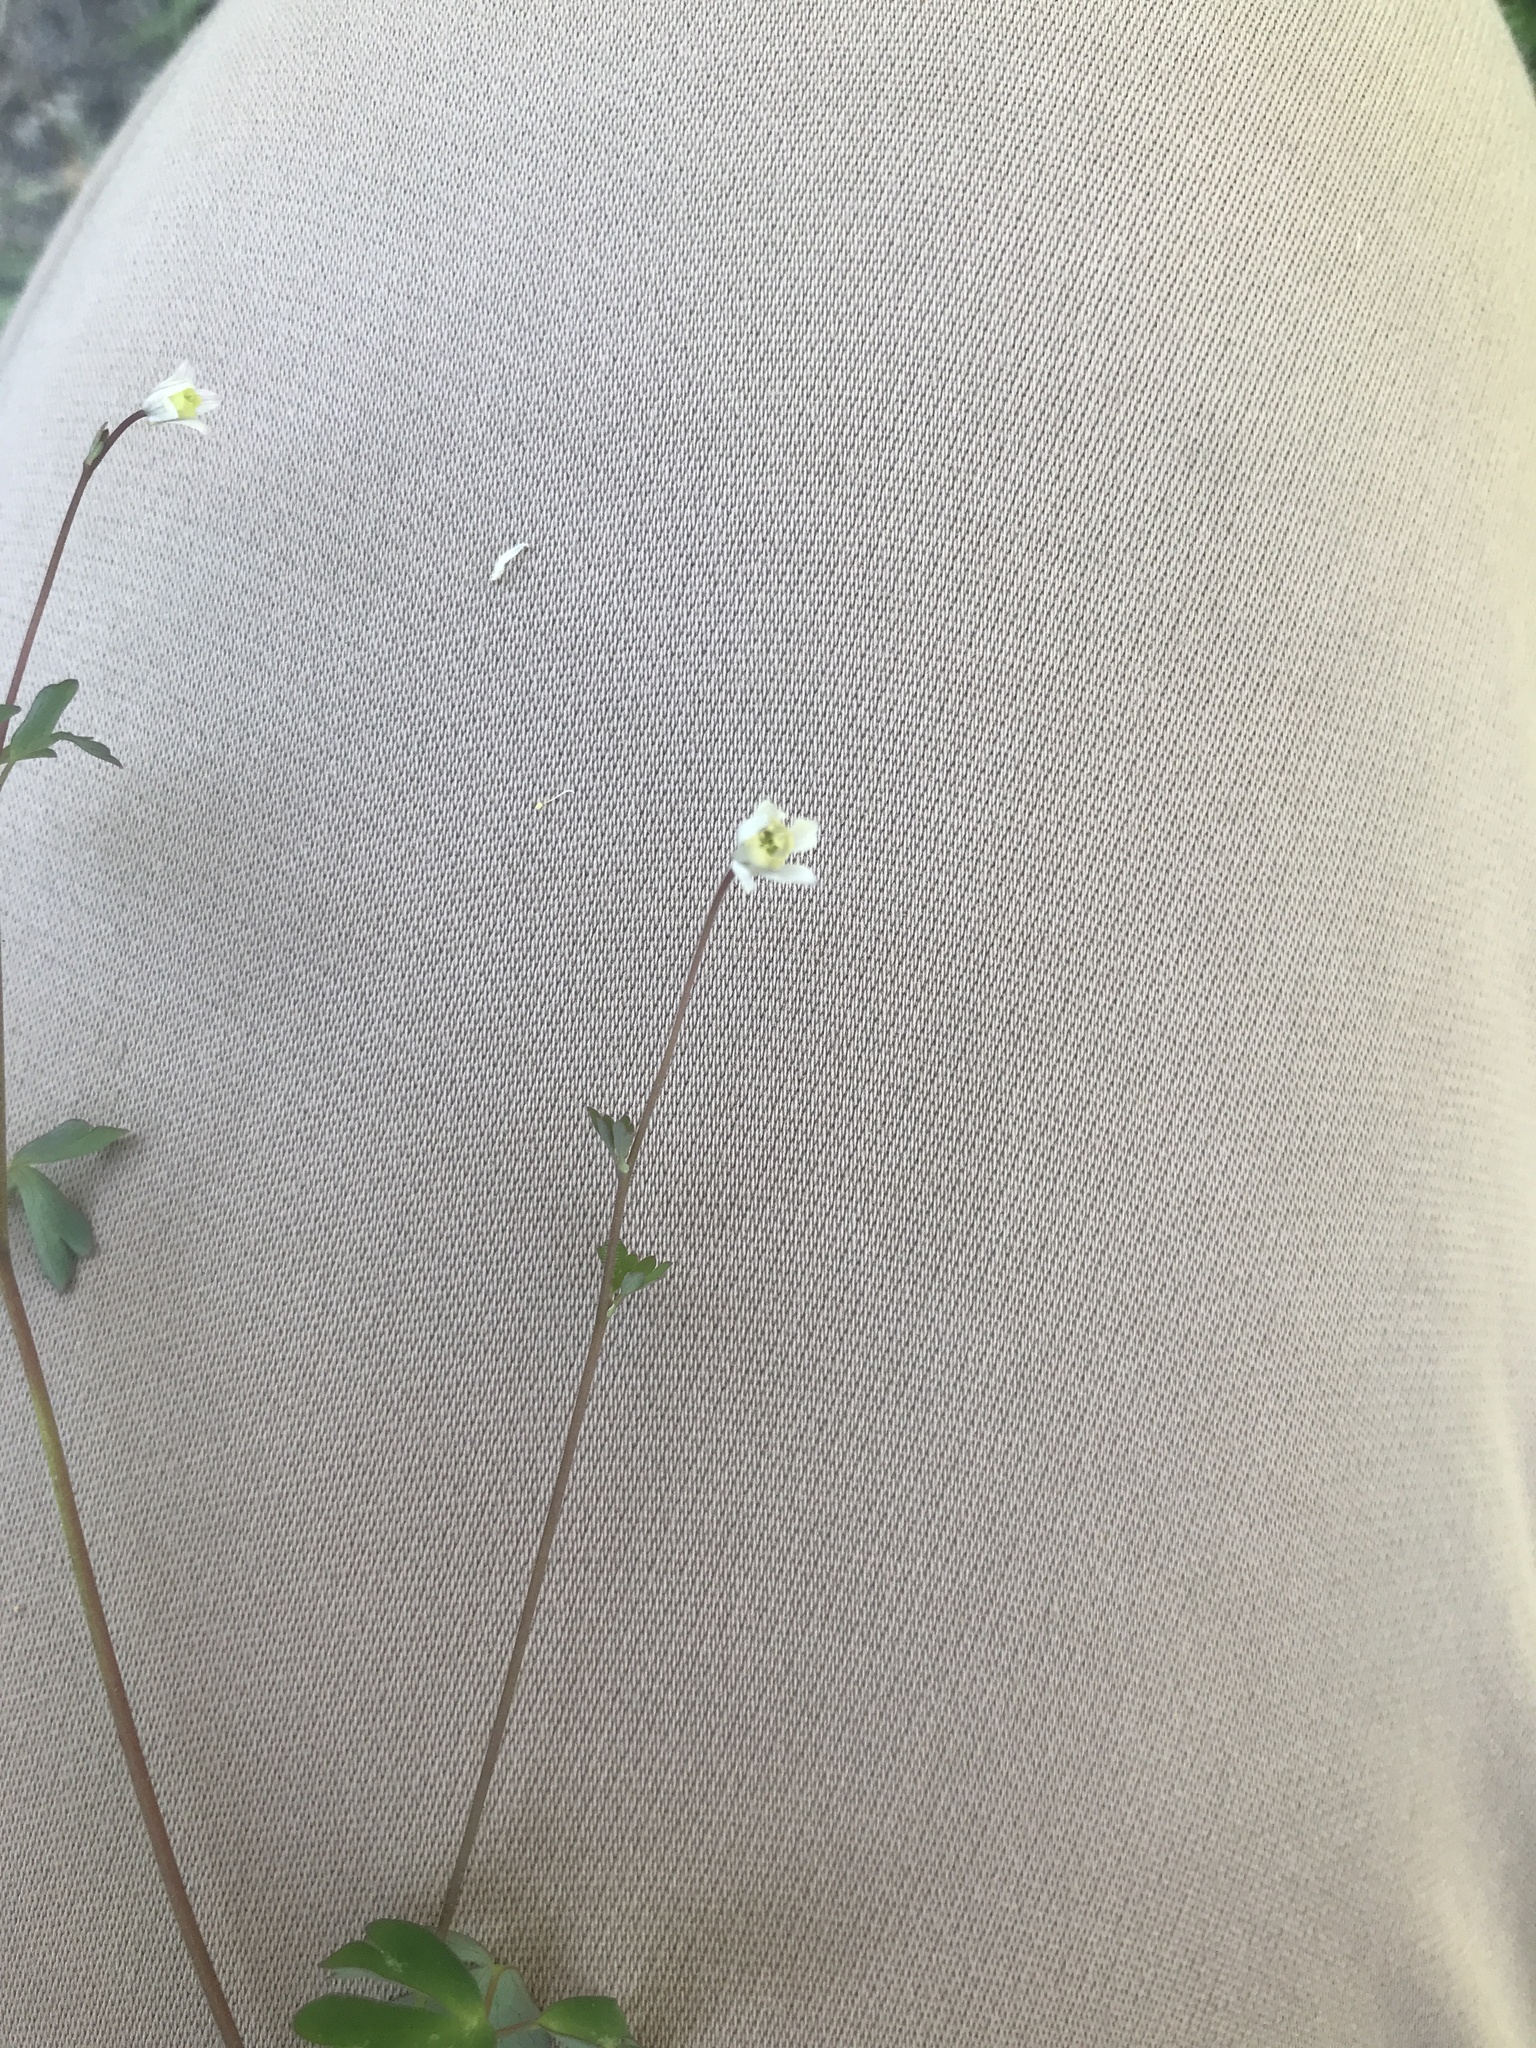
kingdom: Plantae
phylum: Tracheophyta
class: Magnoliopsida
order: Ranunculales
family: Ranunculaceae
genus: Semiaquilegia
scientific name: Semiaquilegia adoxoides
